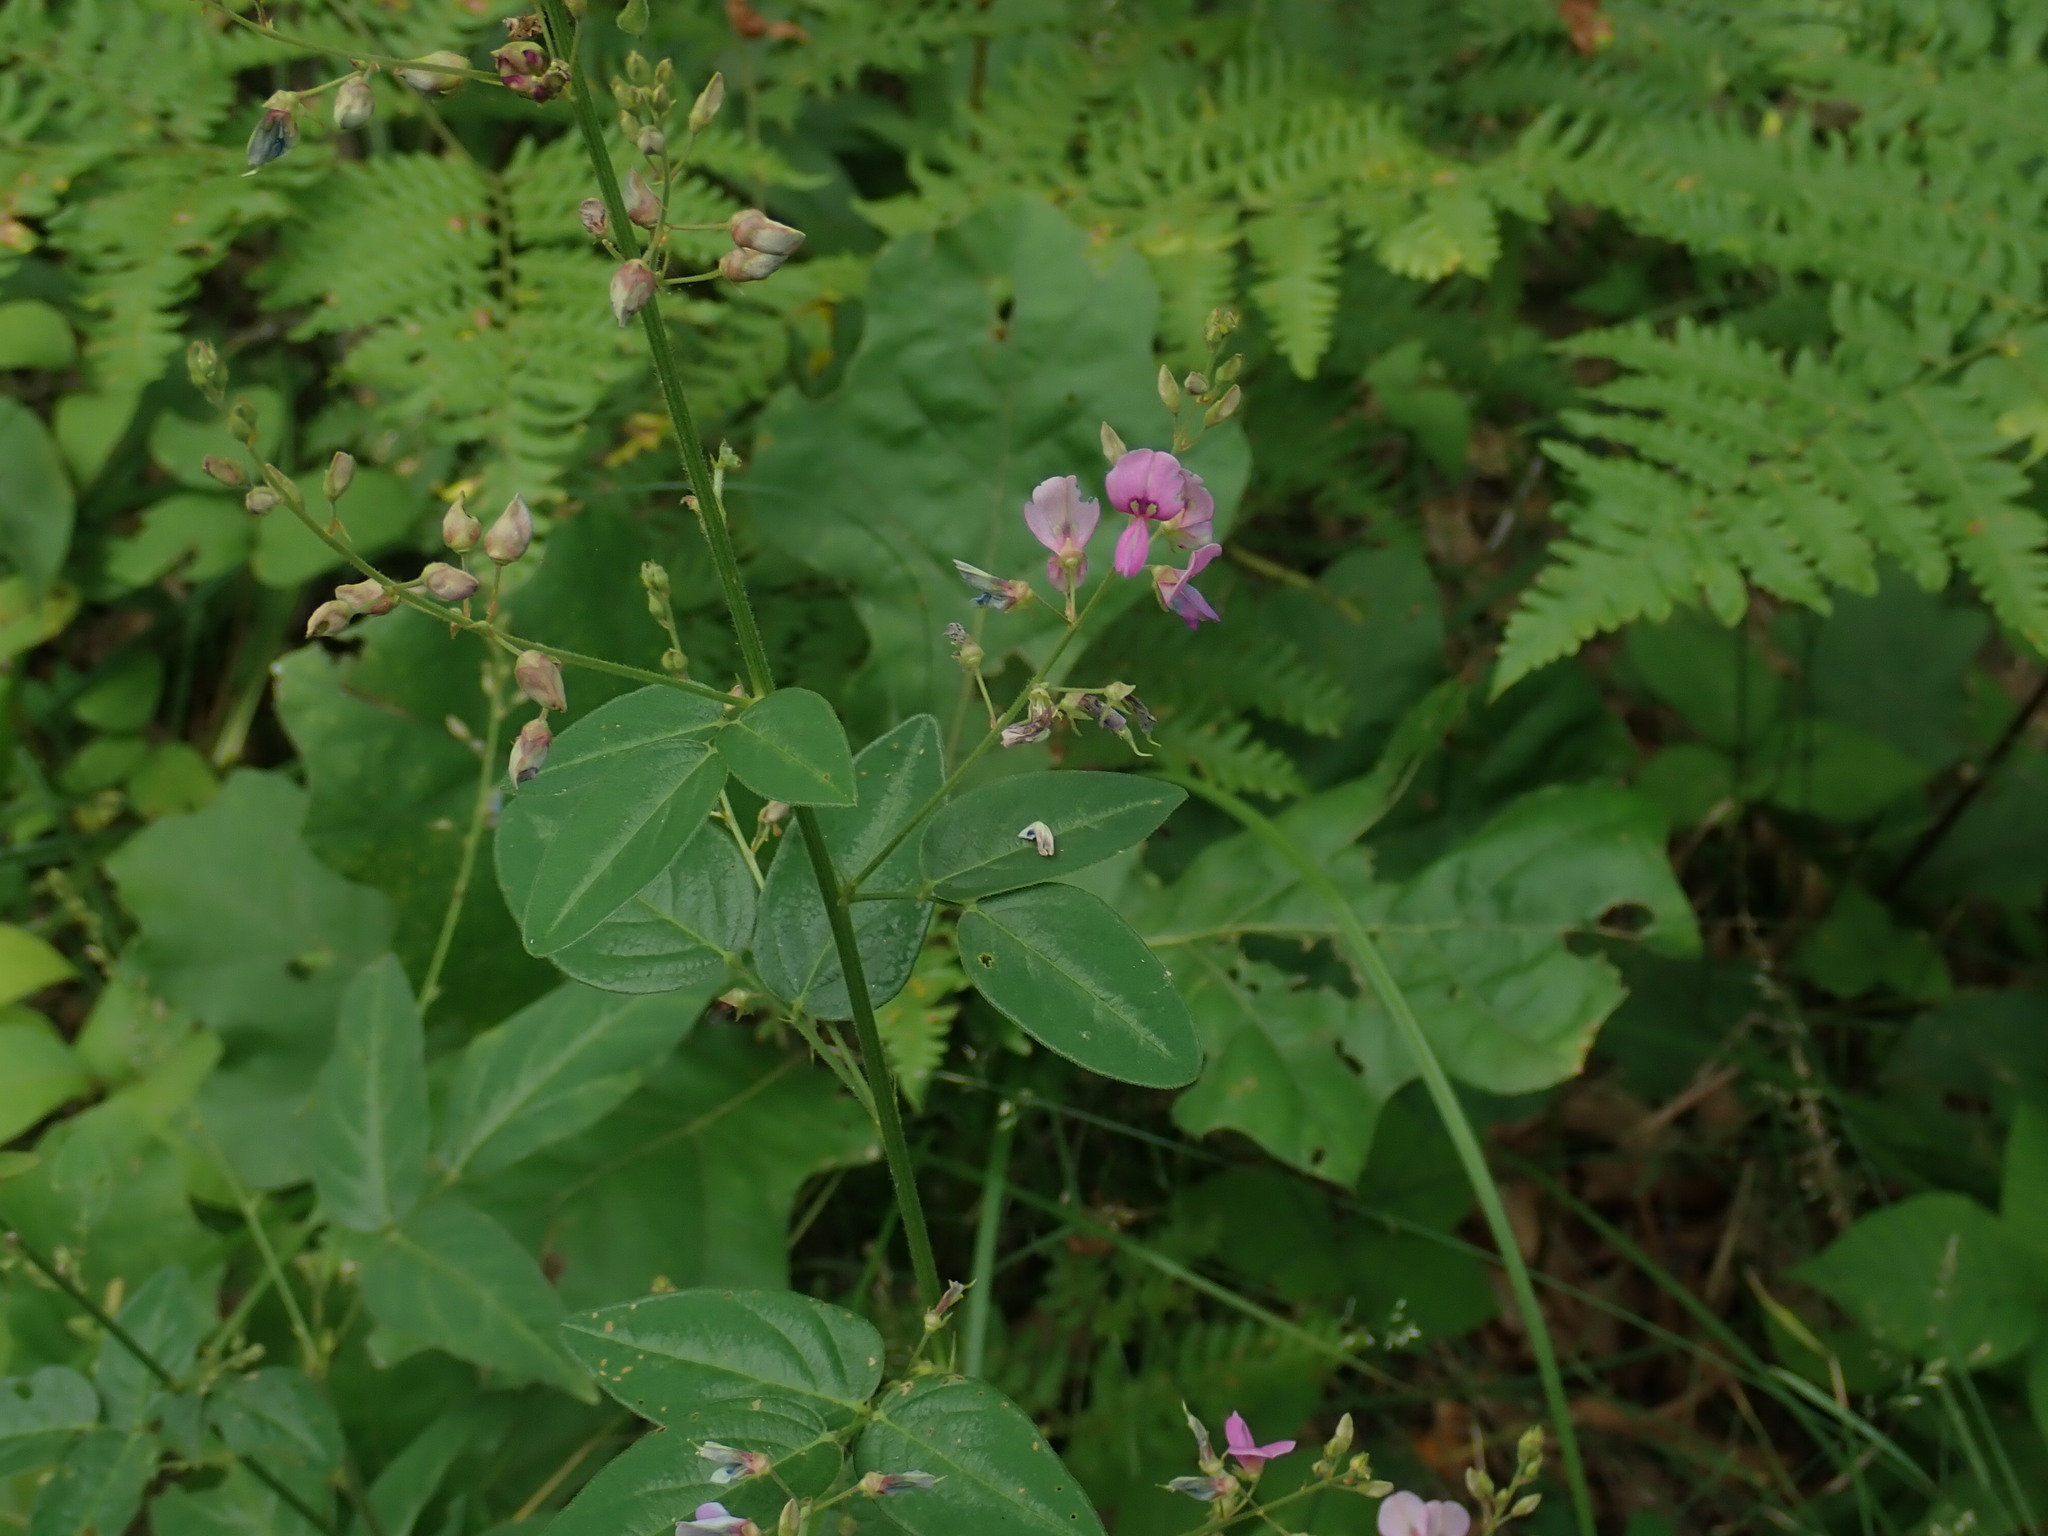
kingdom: Plantae
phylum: Tracheophyta
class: Magnoliopsida
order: Fabales
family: Fabaceae
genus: Desmodium
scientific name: Desmodium glabellum
